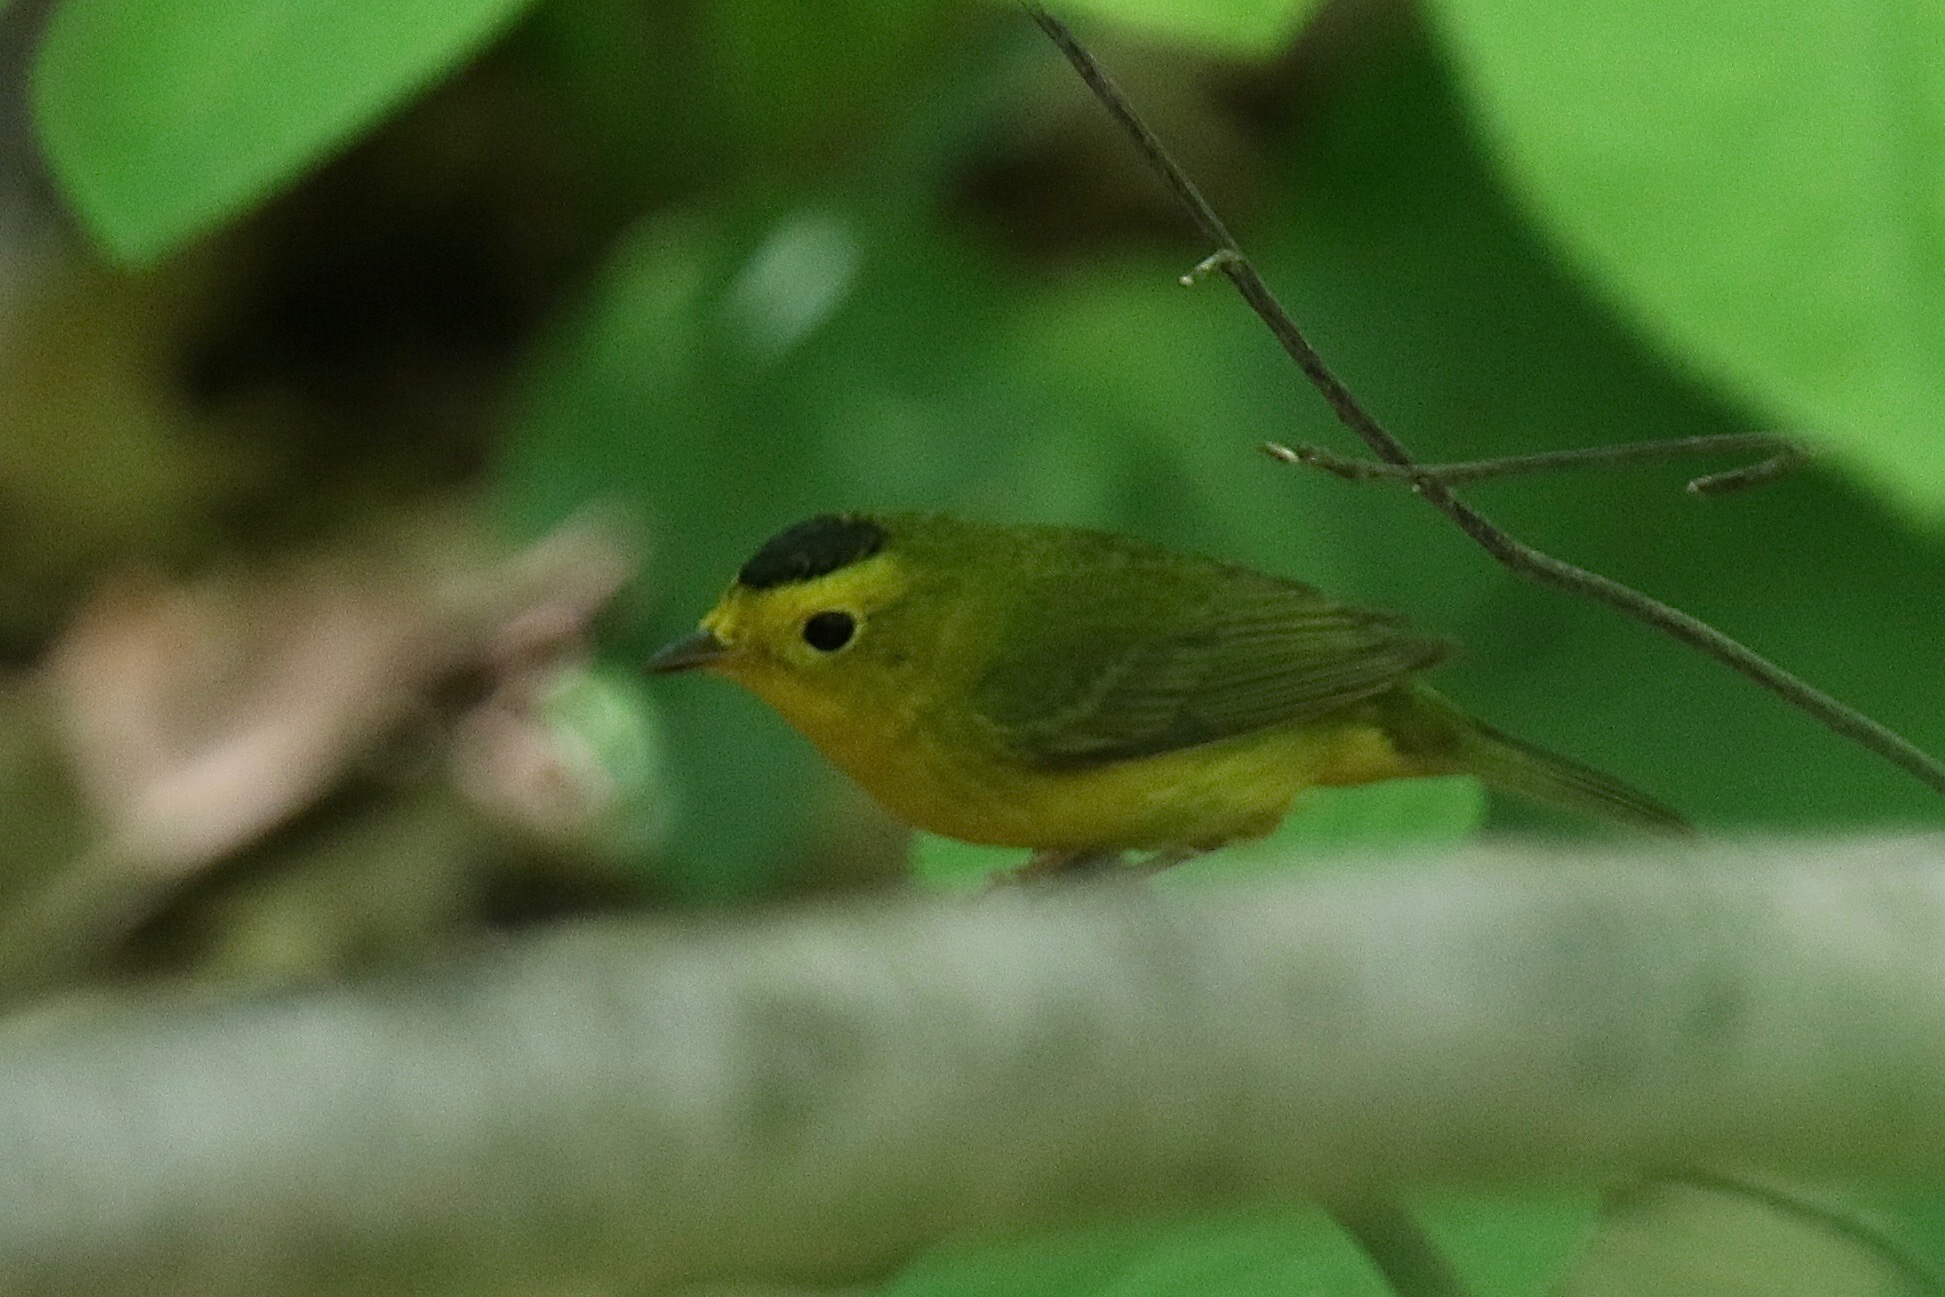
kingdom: Animalia
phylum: Chordata
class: Aves
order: Passeriformes
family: Parulidae
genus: Cardellina
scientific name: Cardellina pusilla
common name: Wilson's warbler
